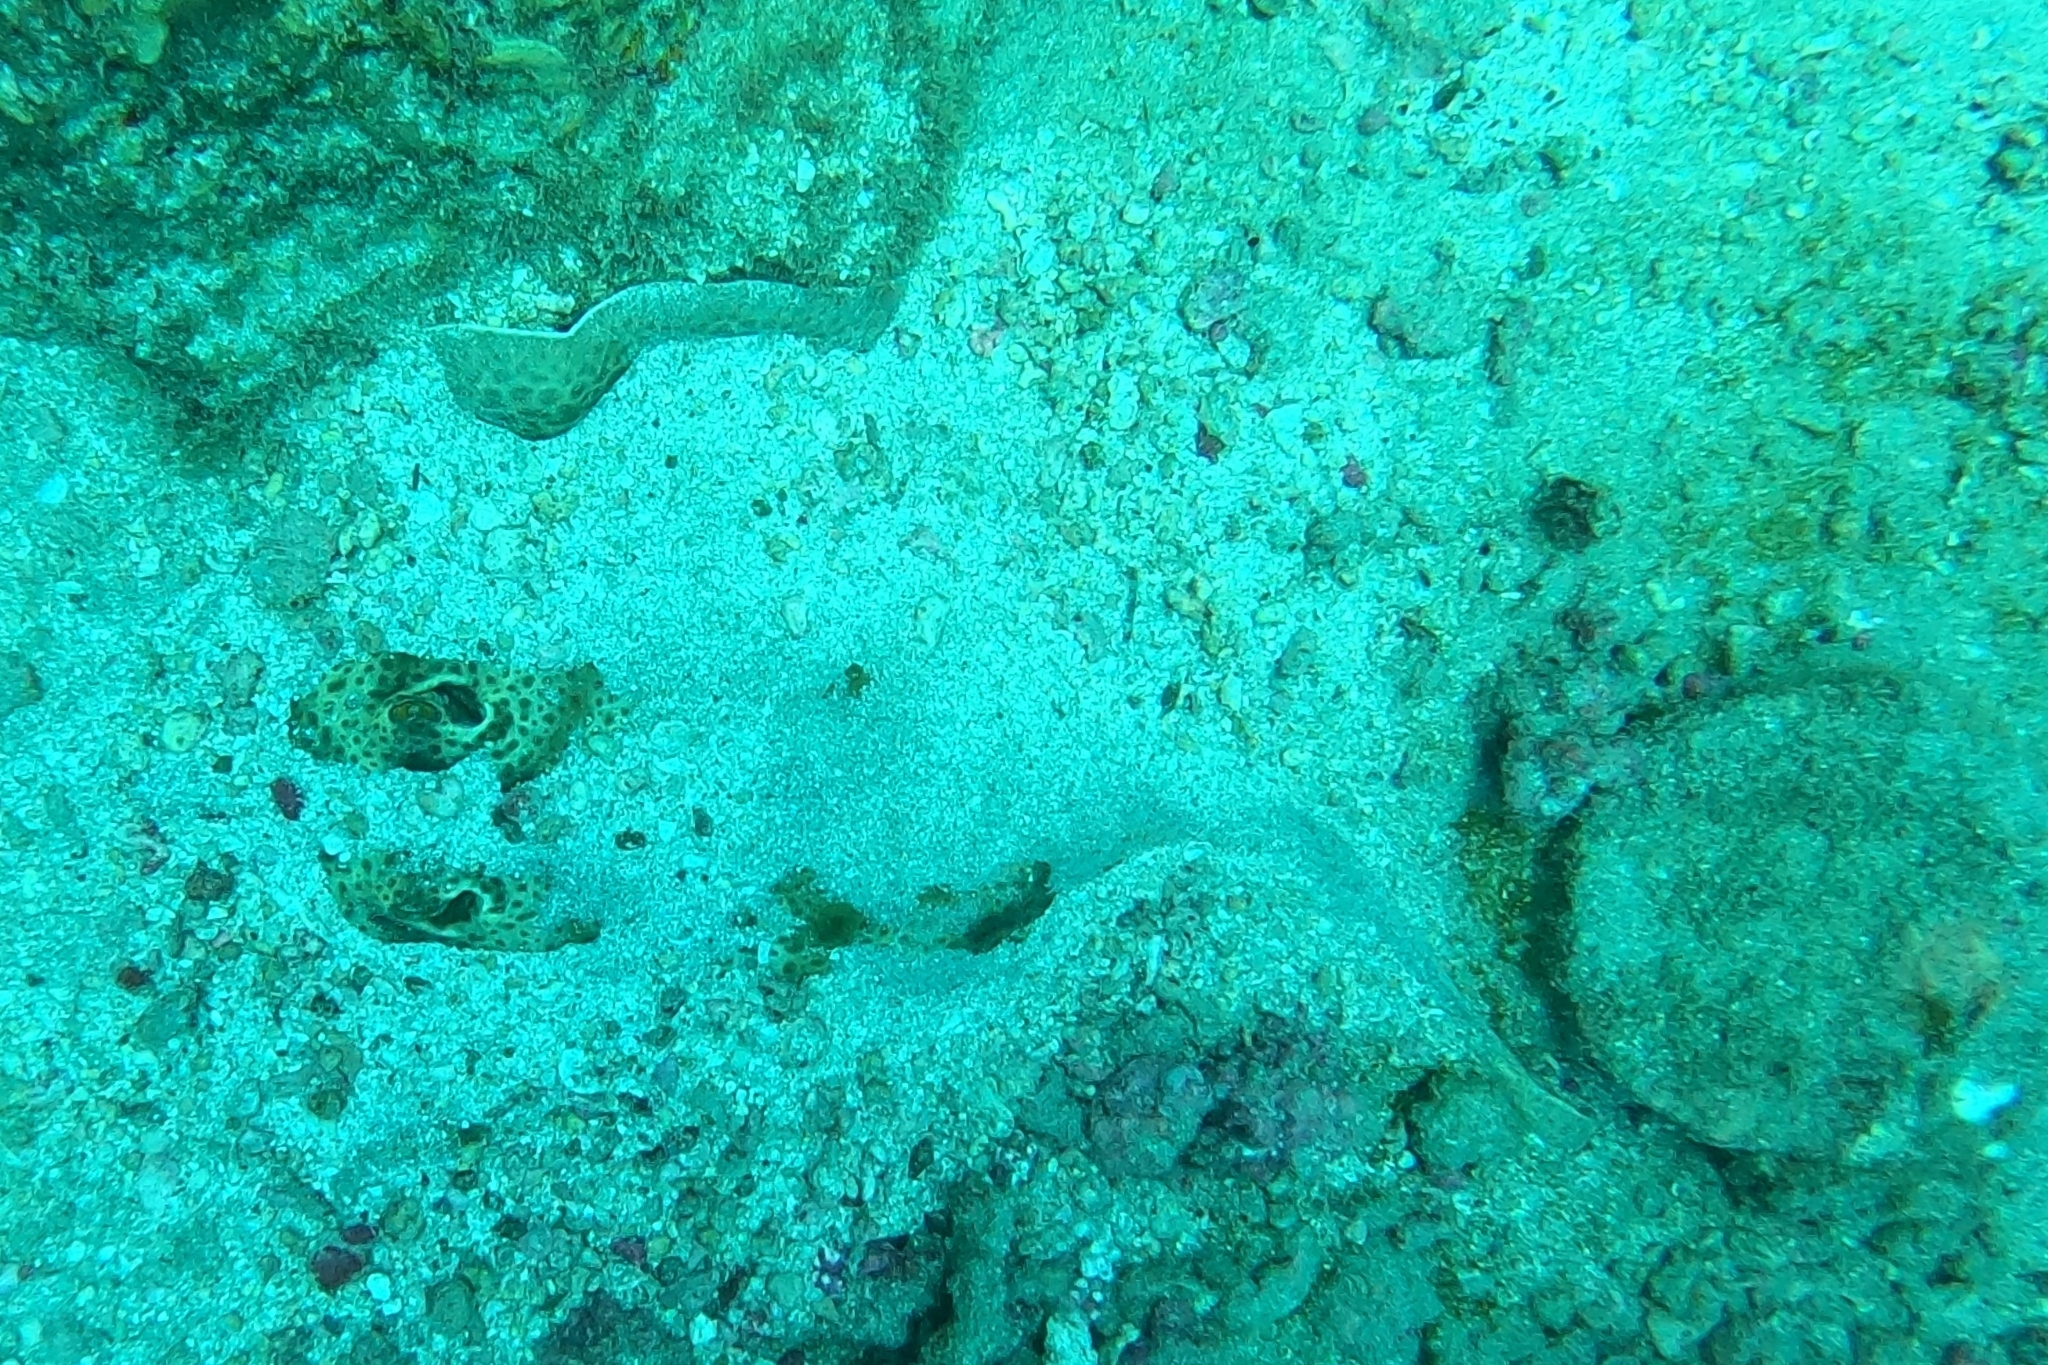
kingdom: Animalia
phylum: Chordata
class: Elasmobranchii
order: Myliobatiformes
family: Urotrygonidae
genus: Urobatis
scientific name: Urobatis pardalis
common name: Leopard round ray
